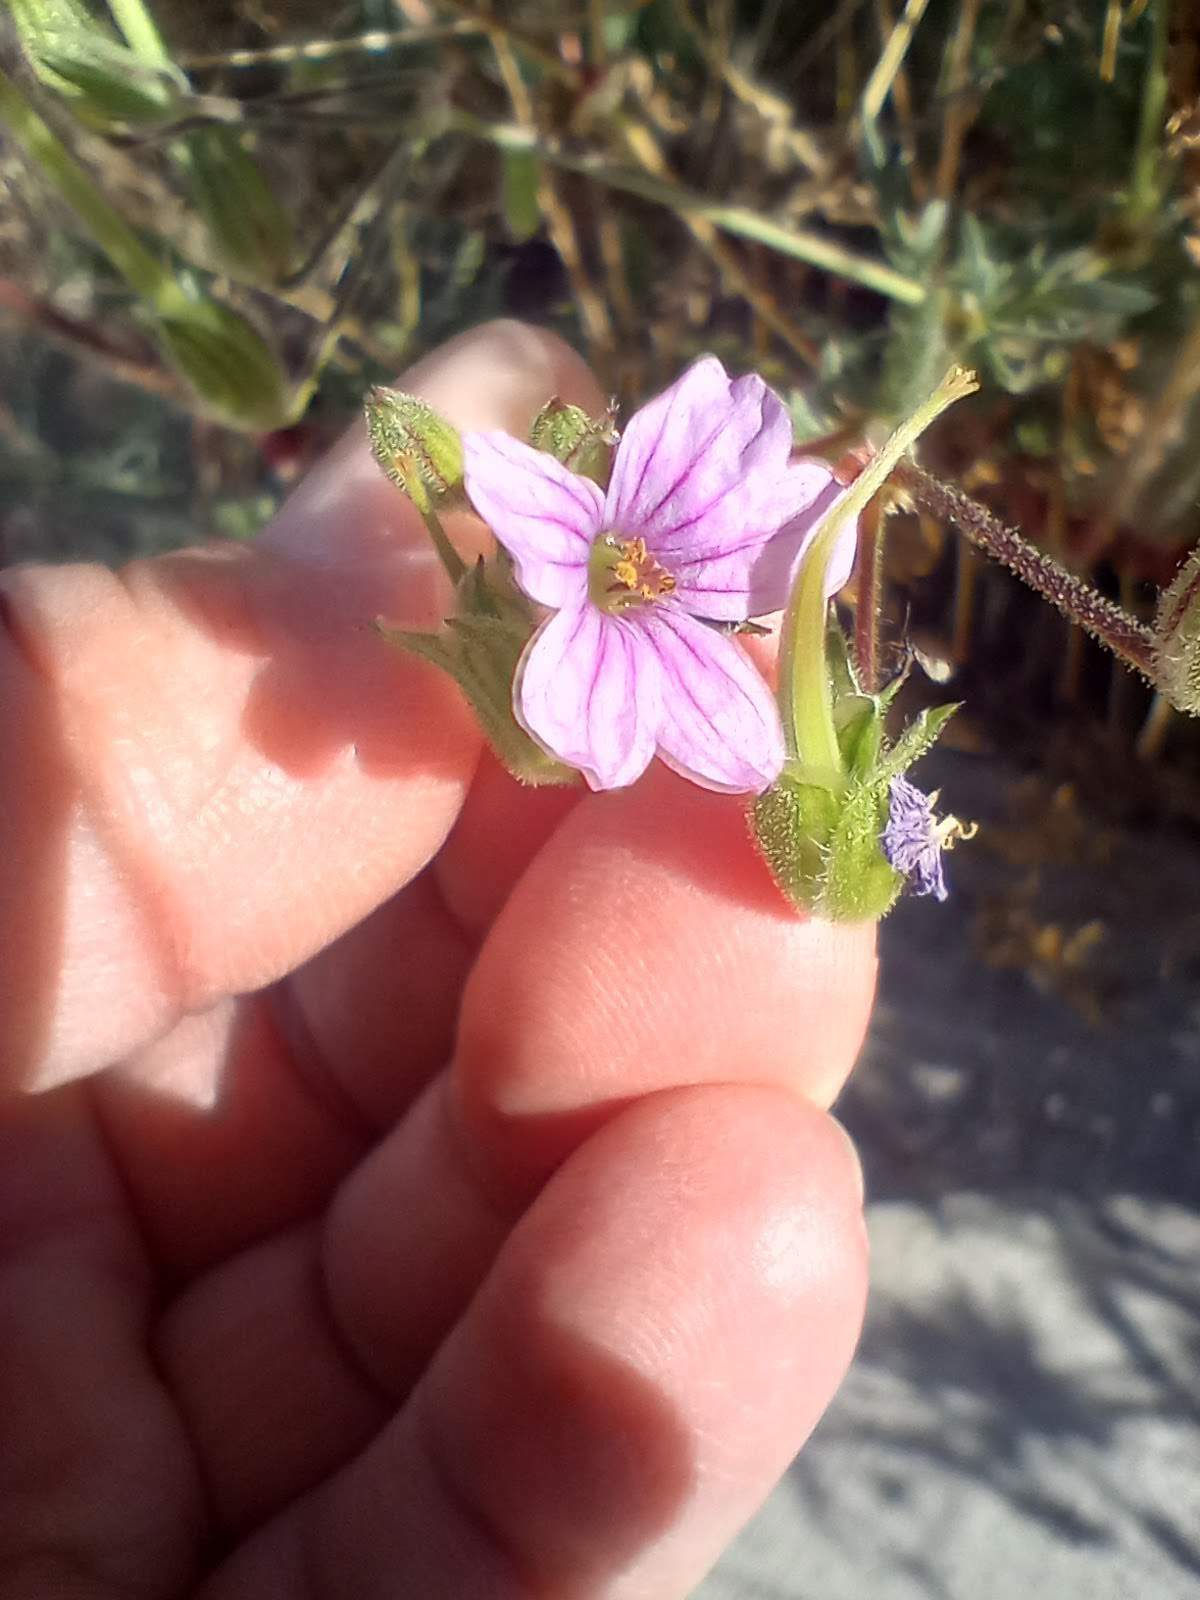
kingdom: Plantae
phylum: Tracheophyta
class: Magnoliopsida
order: Geraniales
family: Geraniaceae
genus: Erodium
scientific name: Erodium botrys
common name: Mediterranean stork's-bill
